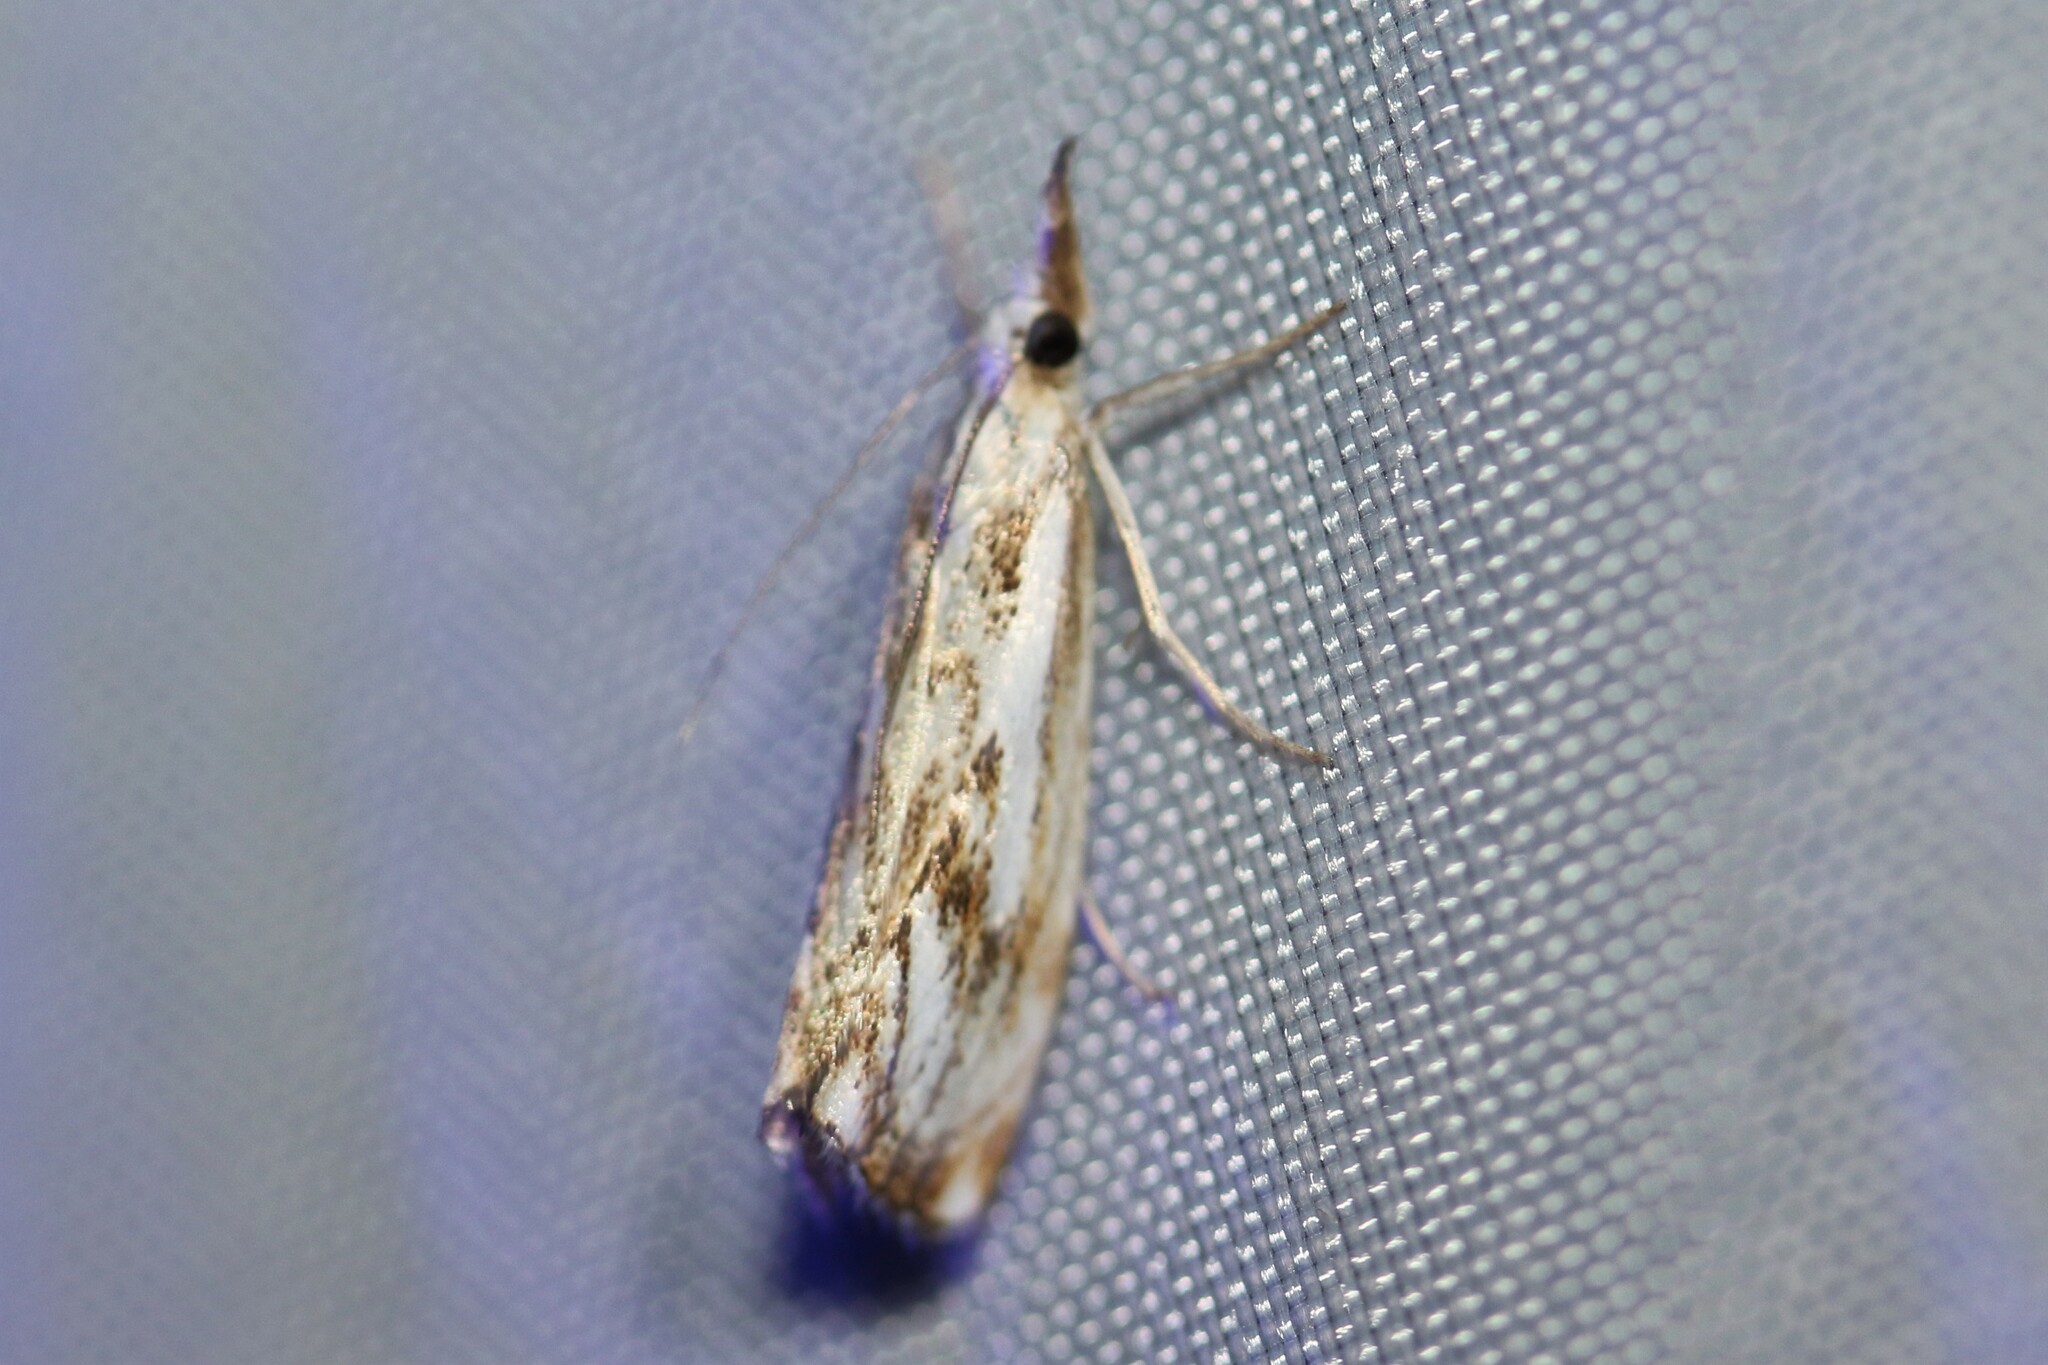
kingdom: Animalia
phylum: Arthropoda
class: Insecta
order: Lepidoptera
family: Crambidae
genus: Catoptria
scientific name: Catoptria falsella
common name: Chequered grass-veneer
